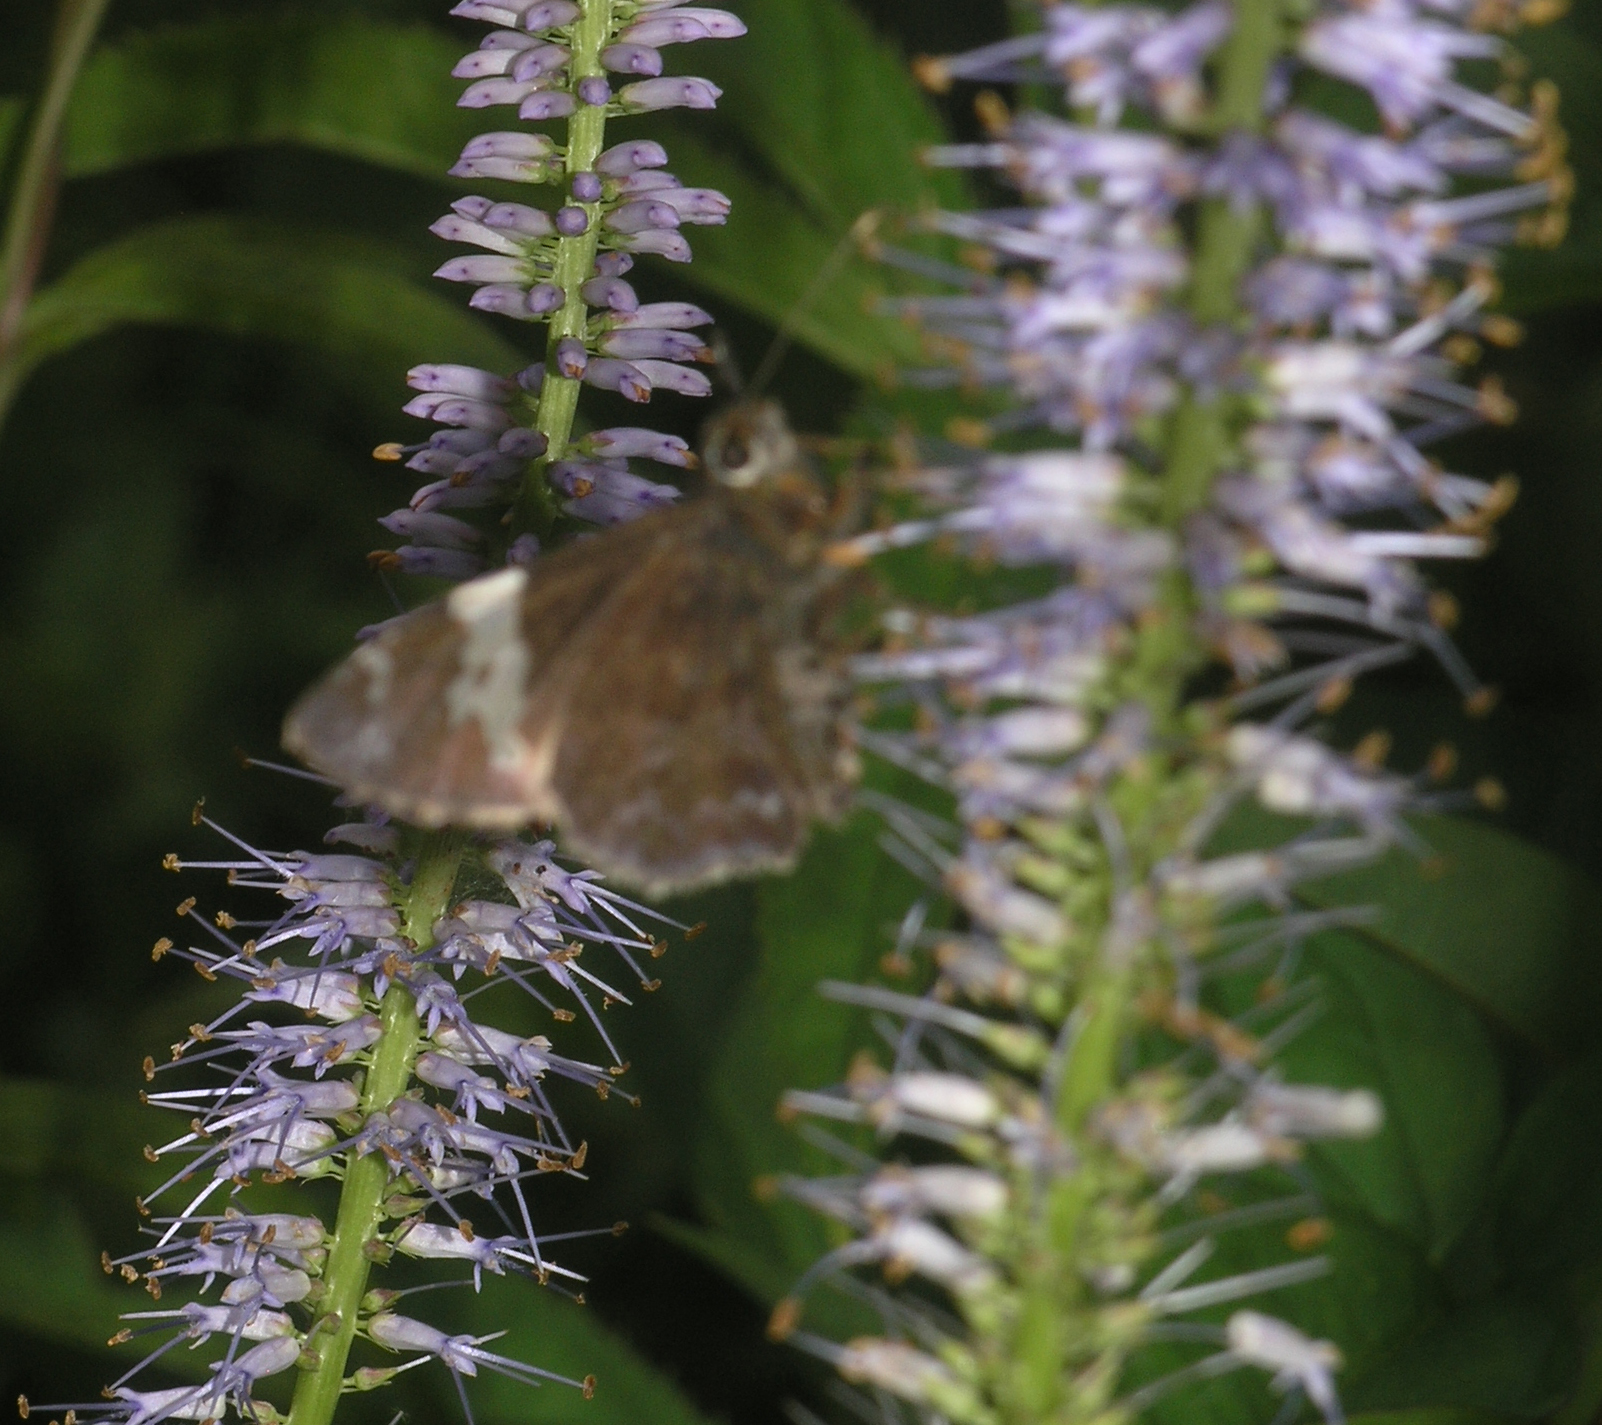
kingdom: Animalia
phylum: Arthropoda
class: Insecta
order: Lepidoptera
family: Hesperiidae
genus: Lobocla
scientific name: Lobocla bifasciatus
